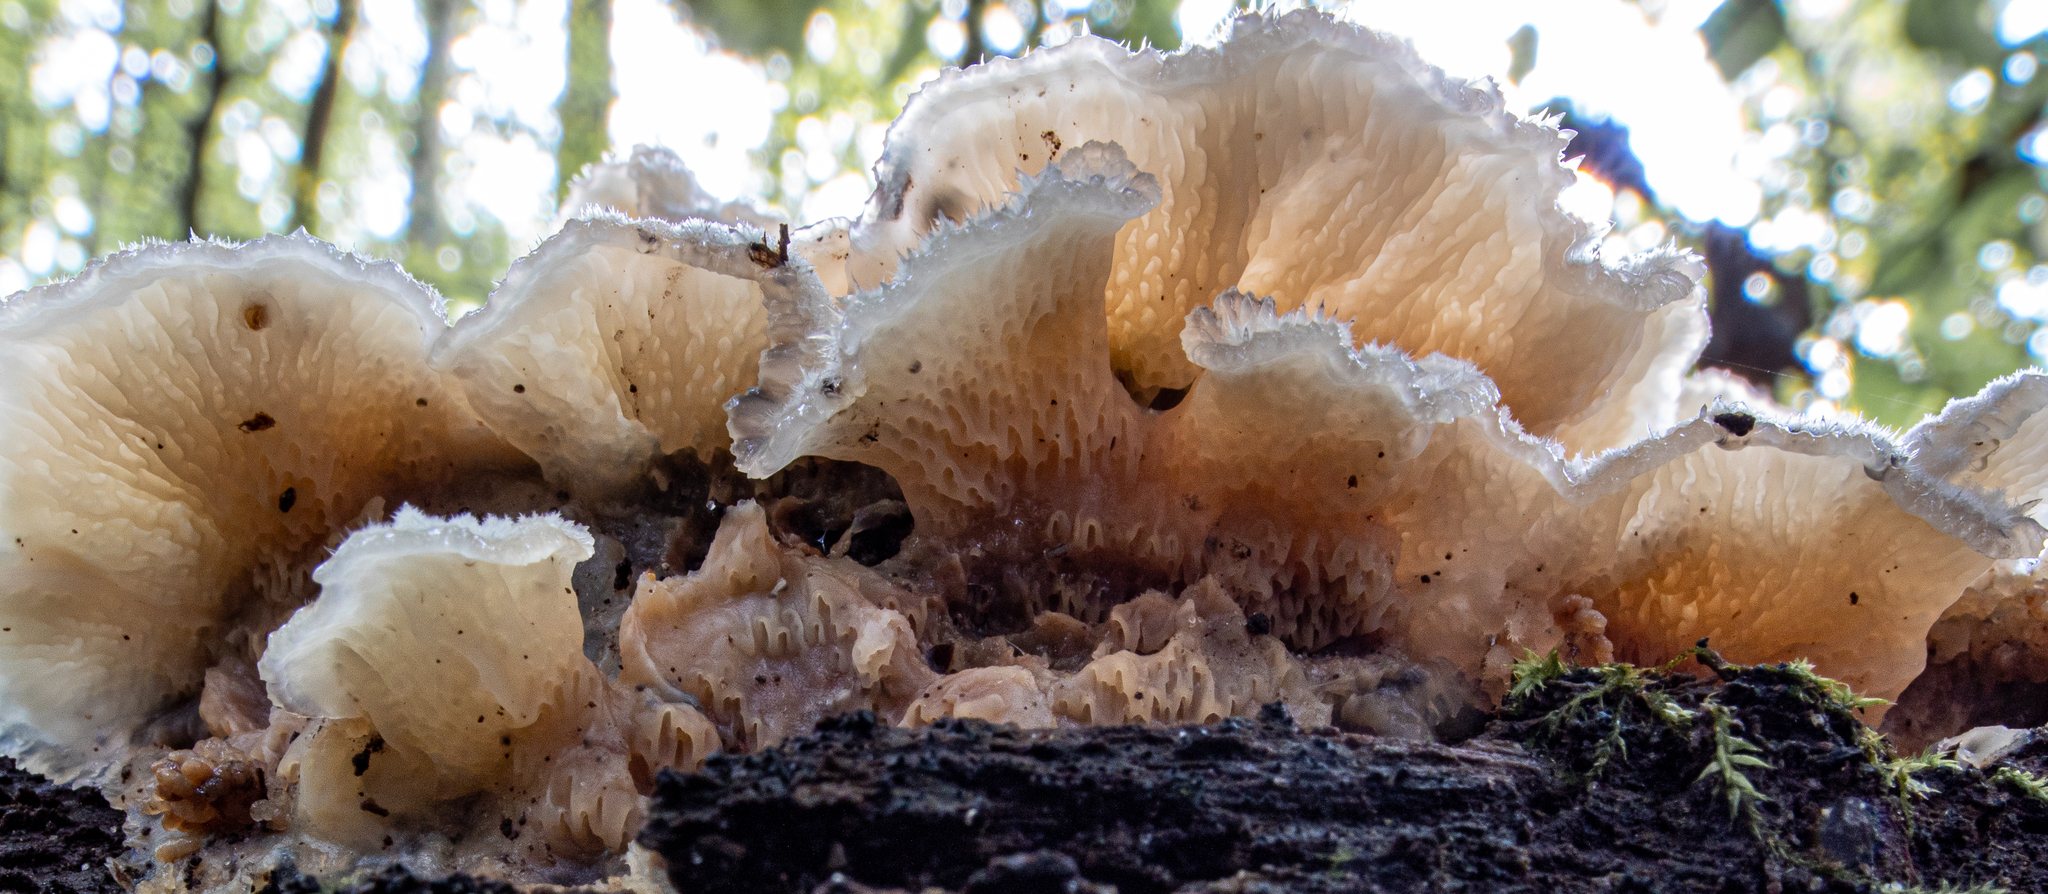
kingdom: Fungi
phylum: Basidiomycota
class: Agaricomycetes
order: Polyporales
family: Meruliaceae
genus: Phlebia
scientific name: Phlebia tremellosa
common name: Jelly rot
